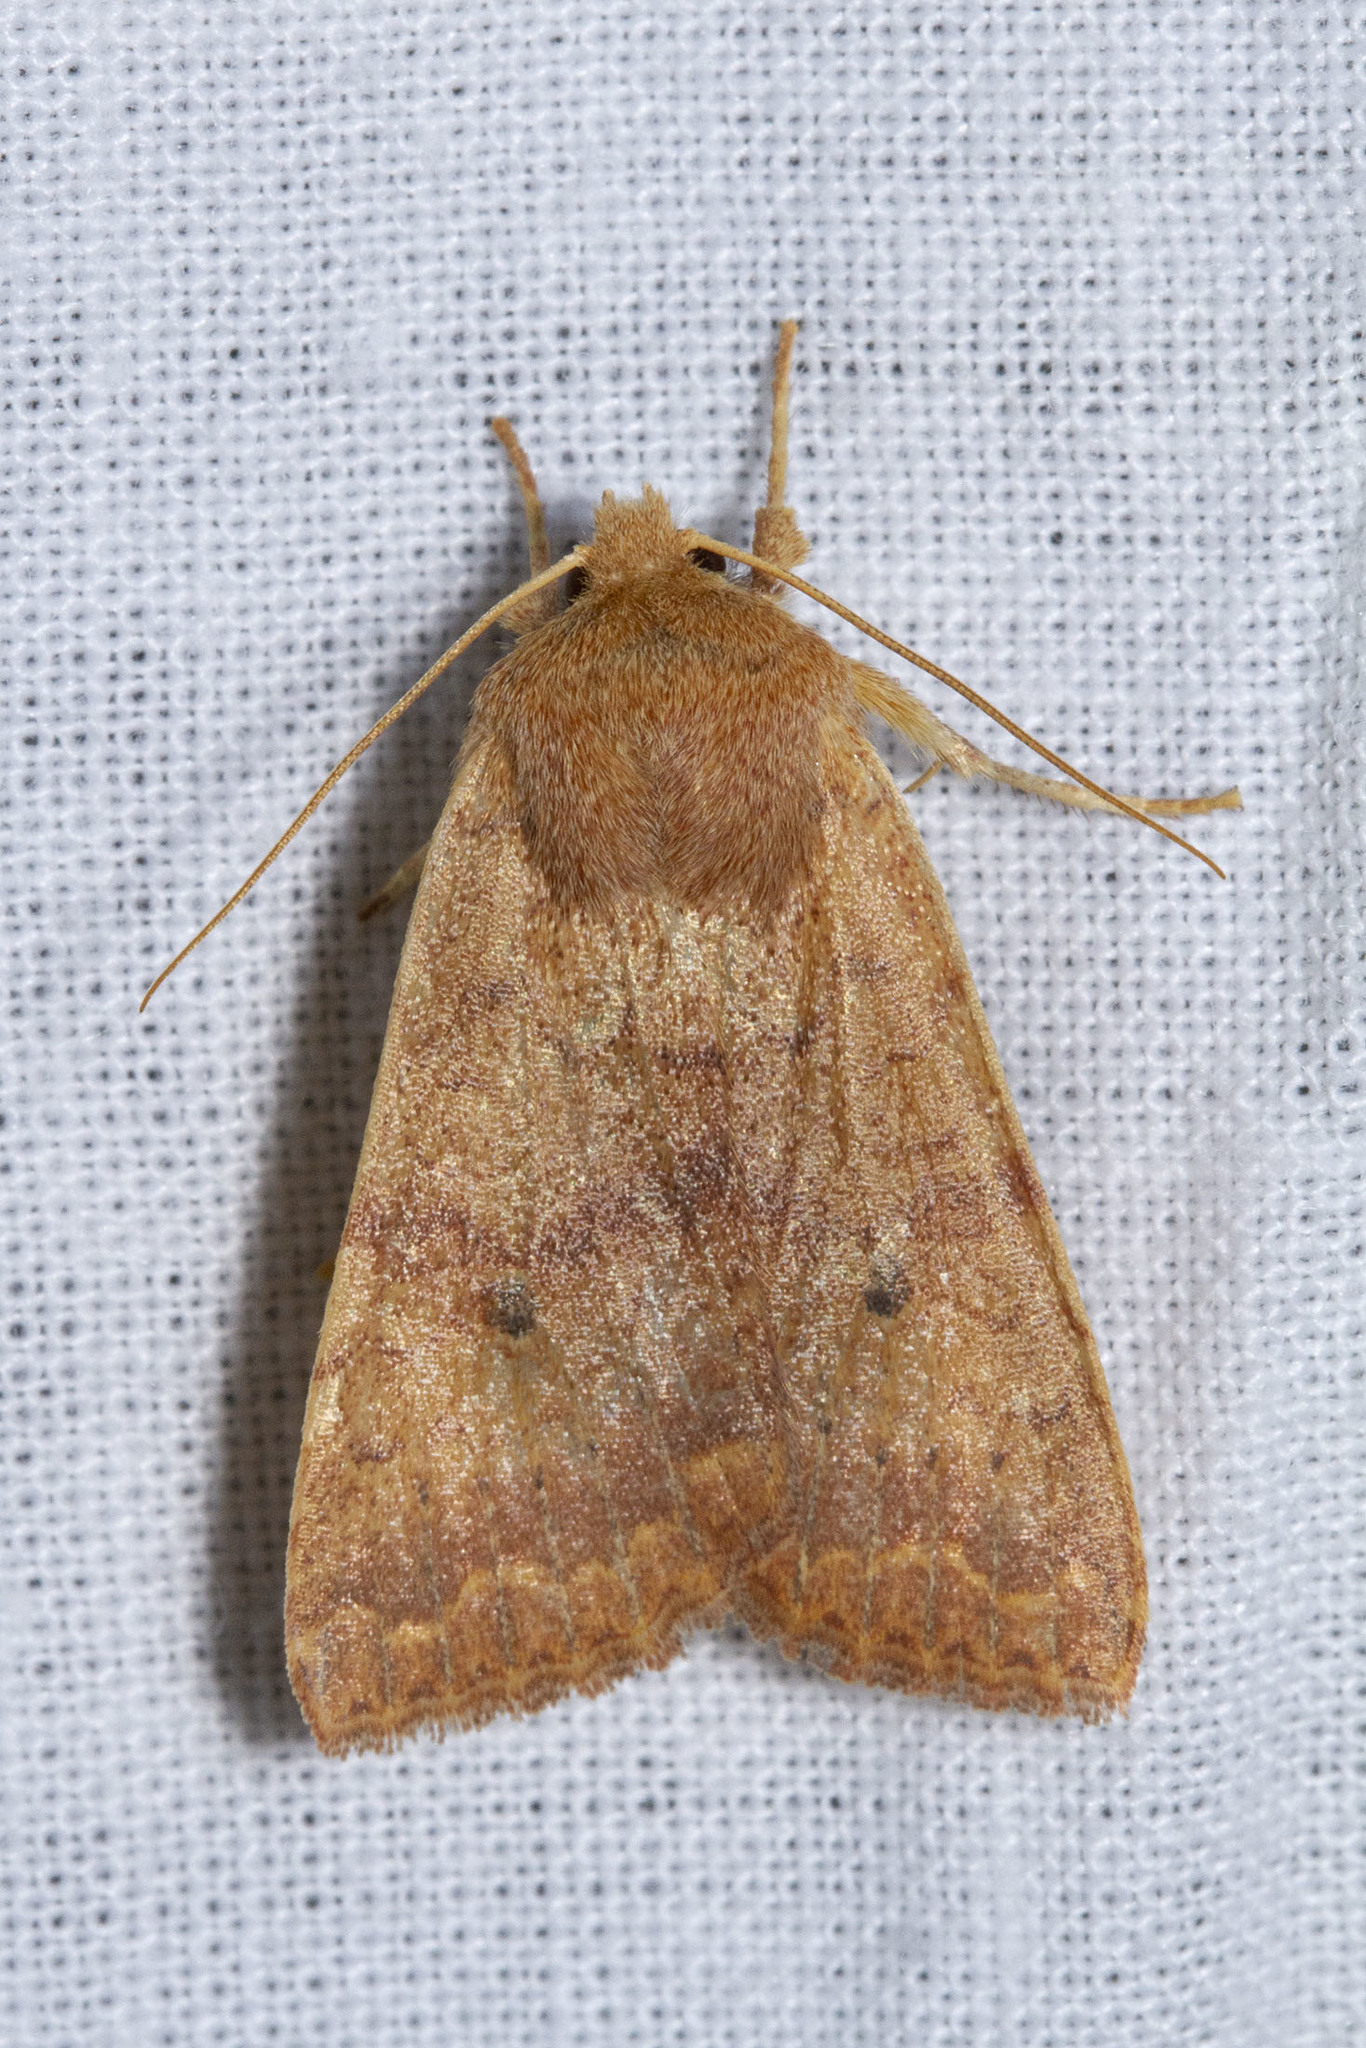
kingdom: Animalia
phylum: Arthropoda
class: Insecta
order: Lepidoptera
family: Noctuidae
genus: Agrochola
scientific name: Agrochola bicolorago
